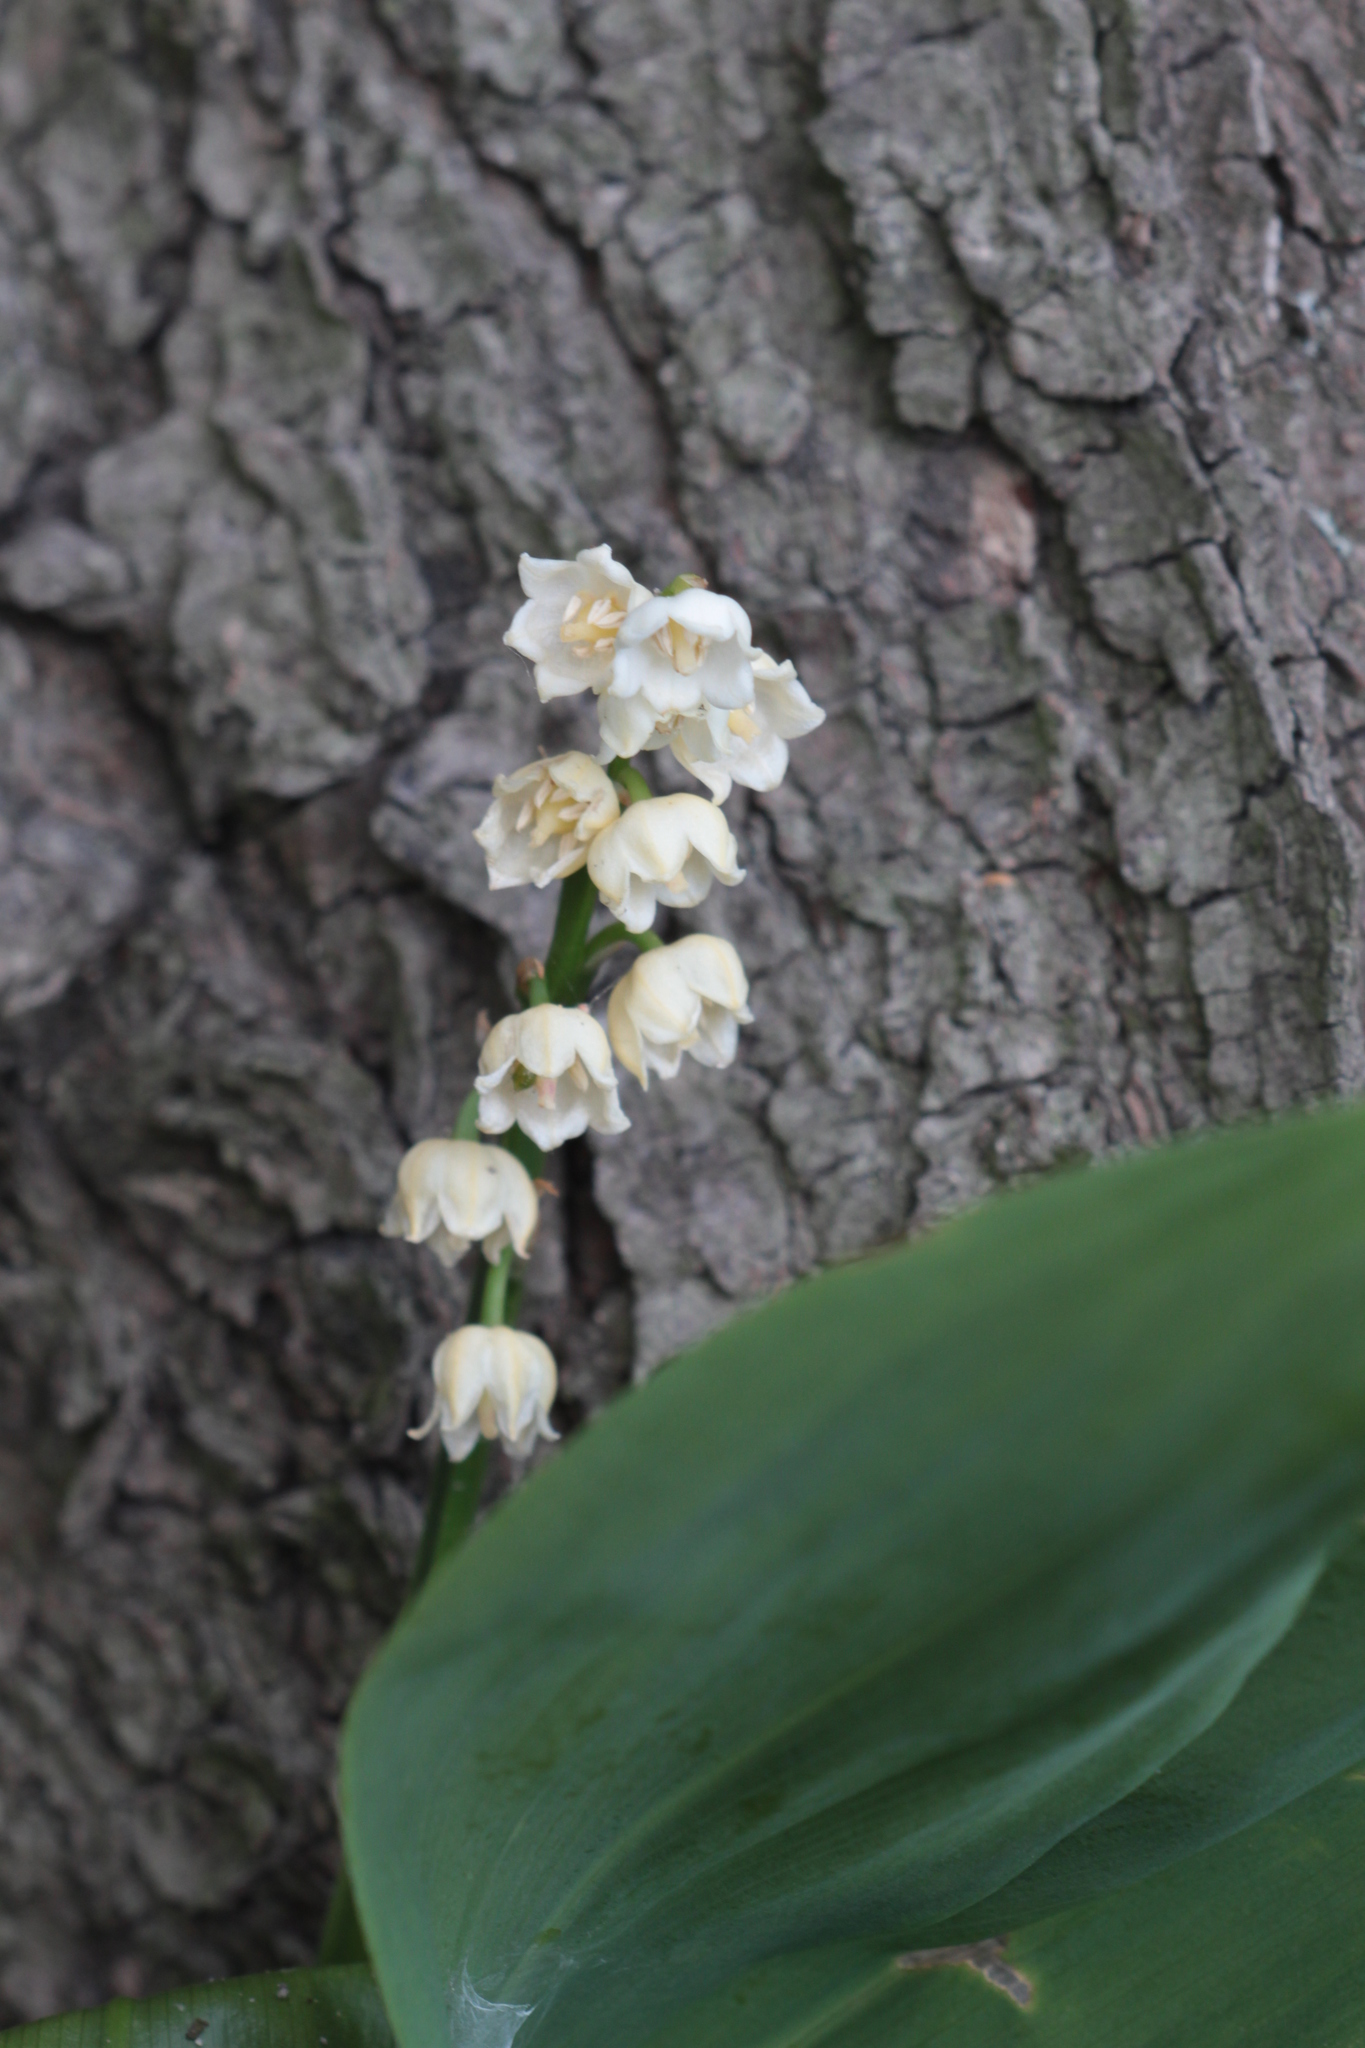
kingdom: Plantae
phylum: Tracheophyta
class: Liliopsida
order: Asparagales
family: Asparagaceae
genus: Convallaria
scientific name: Convallaria majalis
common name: Lily-of-the-valley
